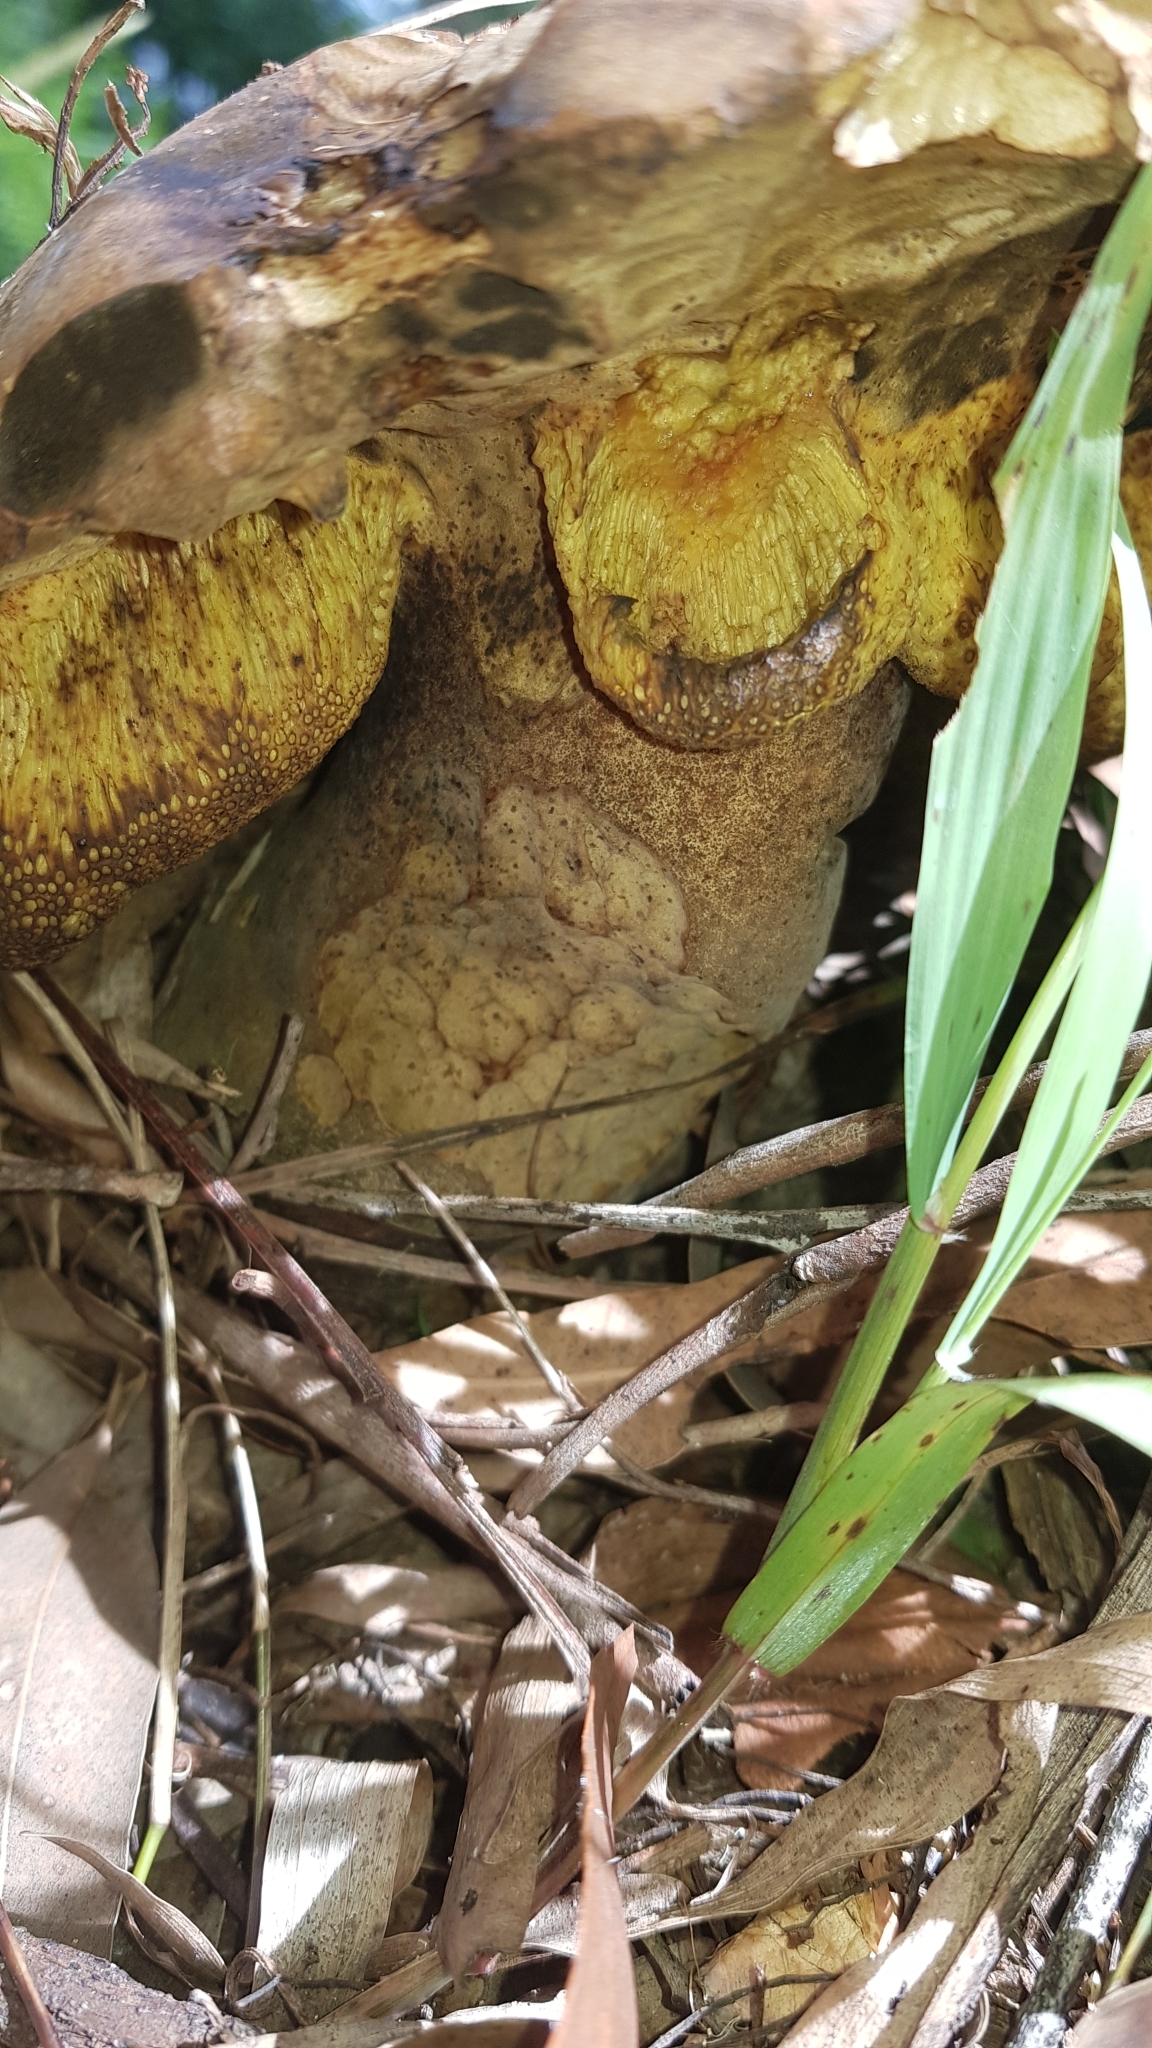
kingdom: Fungi
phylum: Basidiomycota
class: Agaricomycetes
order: Boletales
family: Boletinellaceae
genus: Phlebopus
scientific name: Phlebopus marginatus
